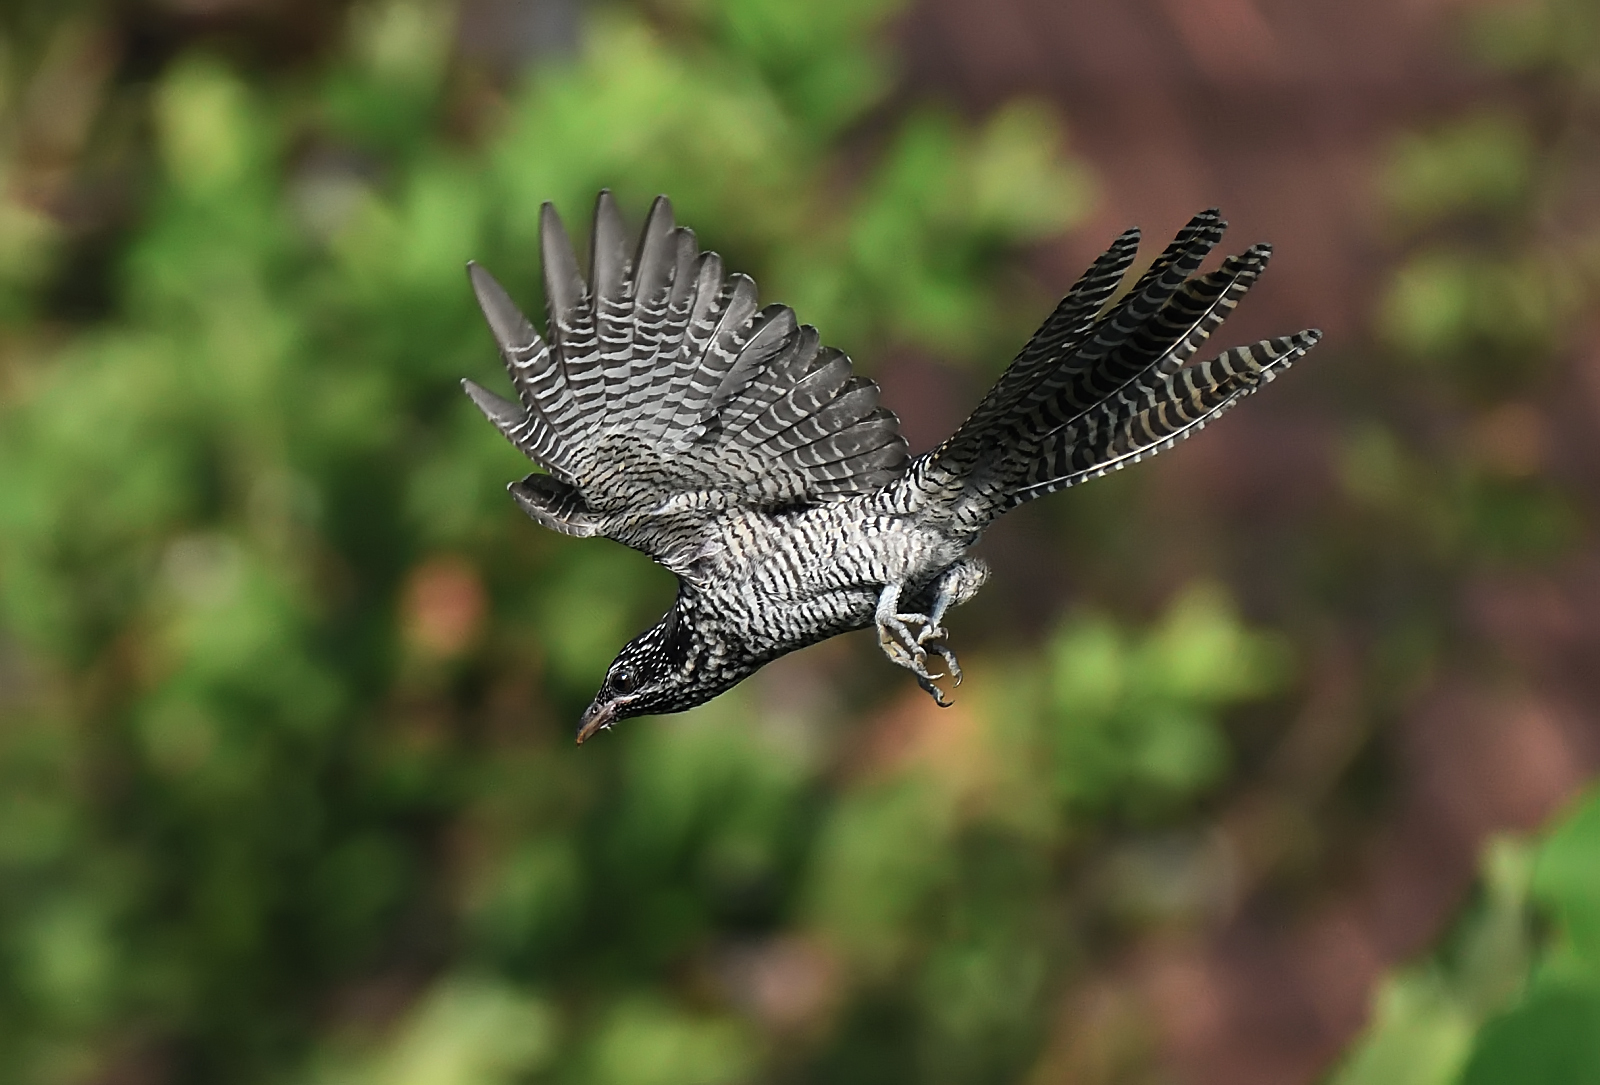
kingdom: Animalia
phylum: Chordata
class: Aves
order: Cuculiformes
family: Cuculidae
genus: Eudynamys
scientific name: Eudynamys scolopaceus
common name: Asian koel
